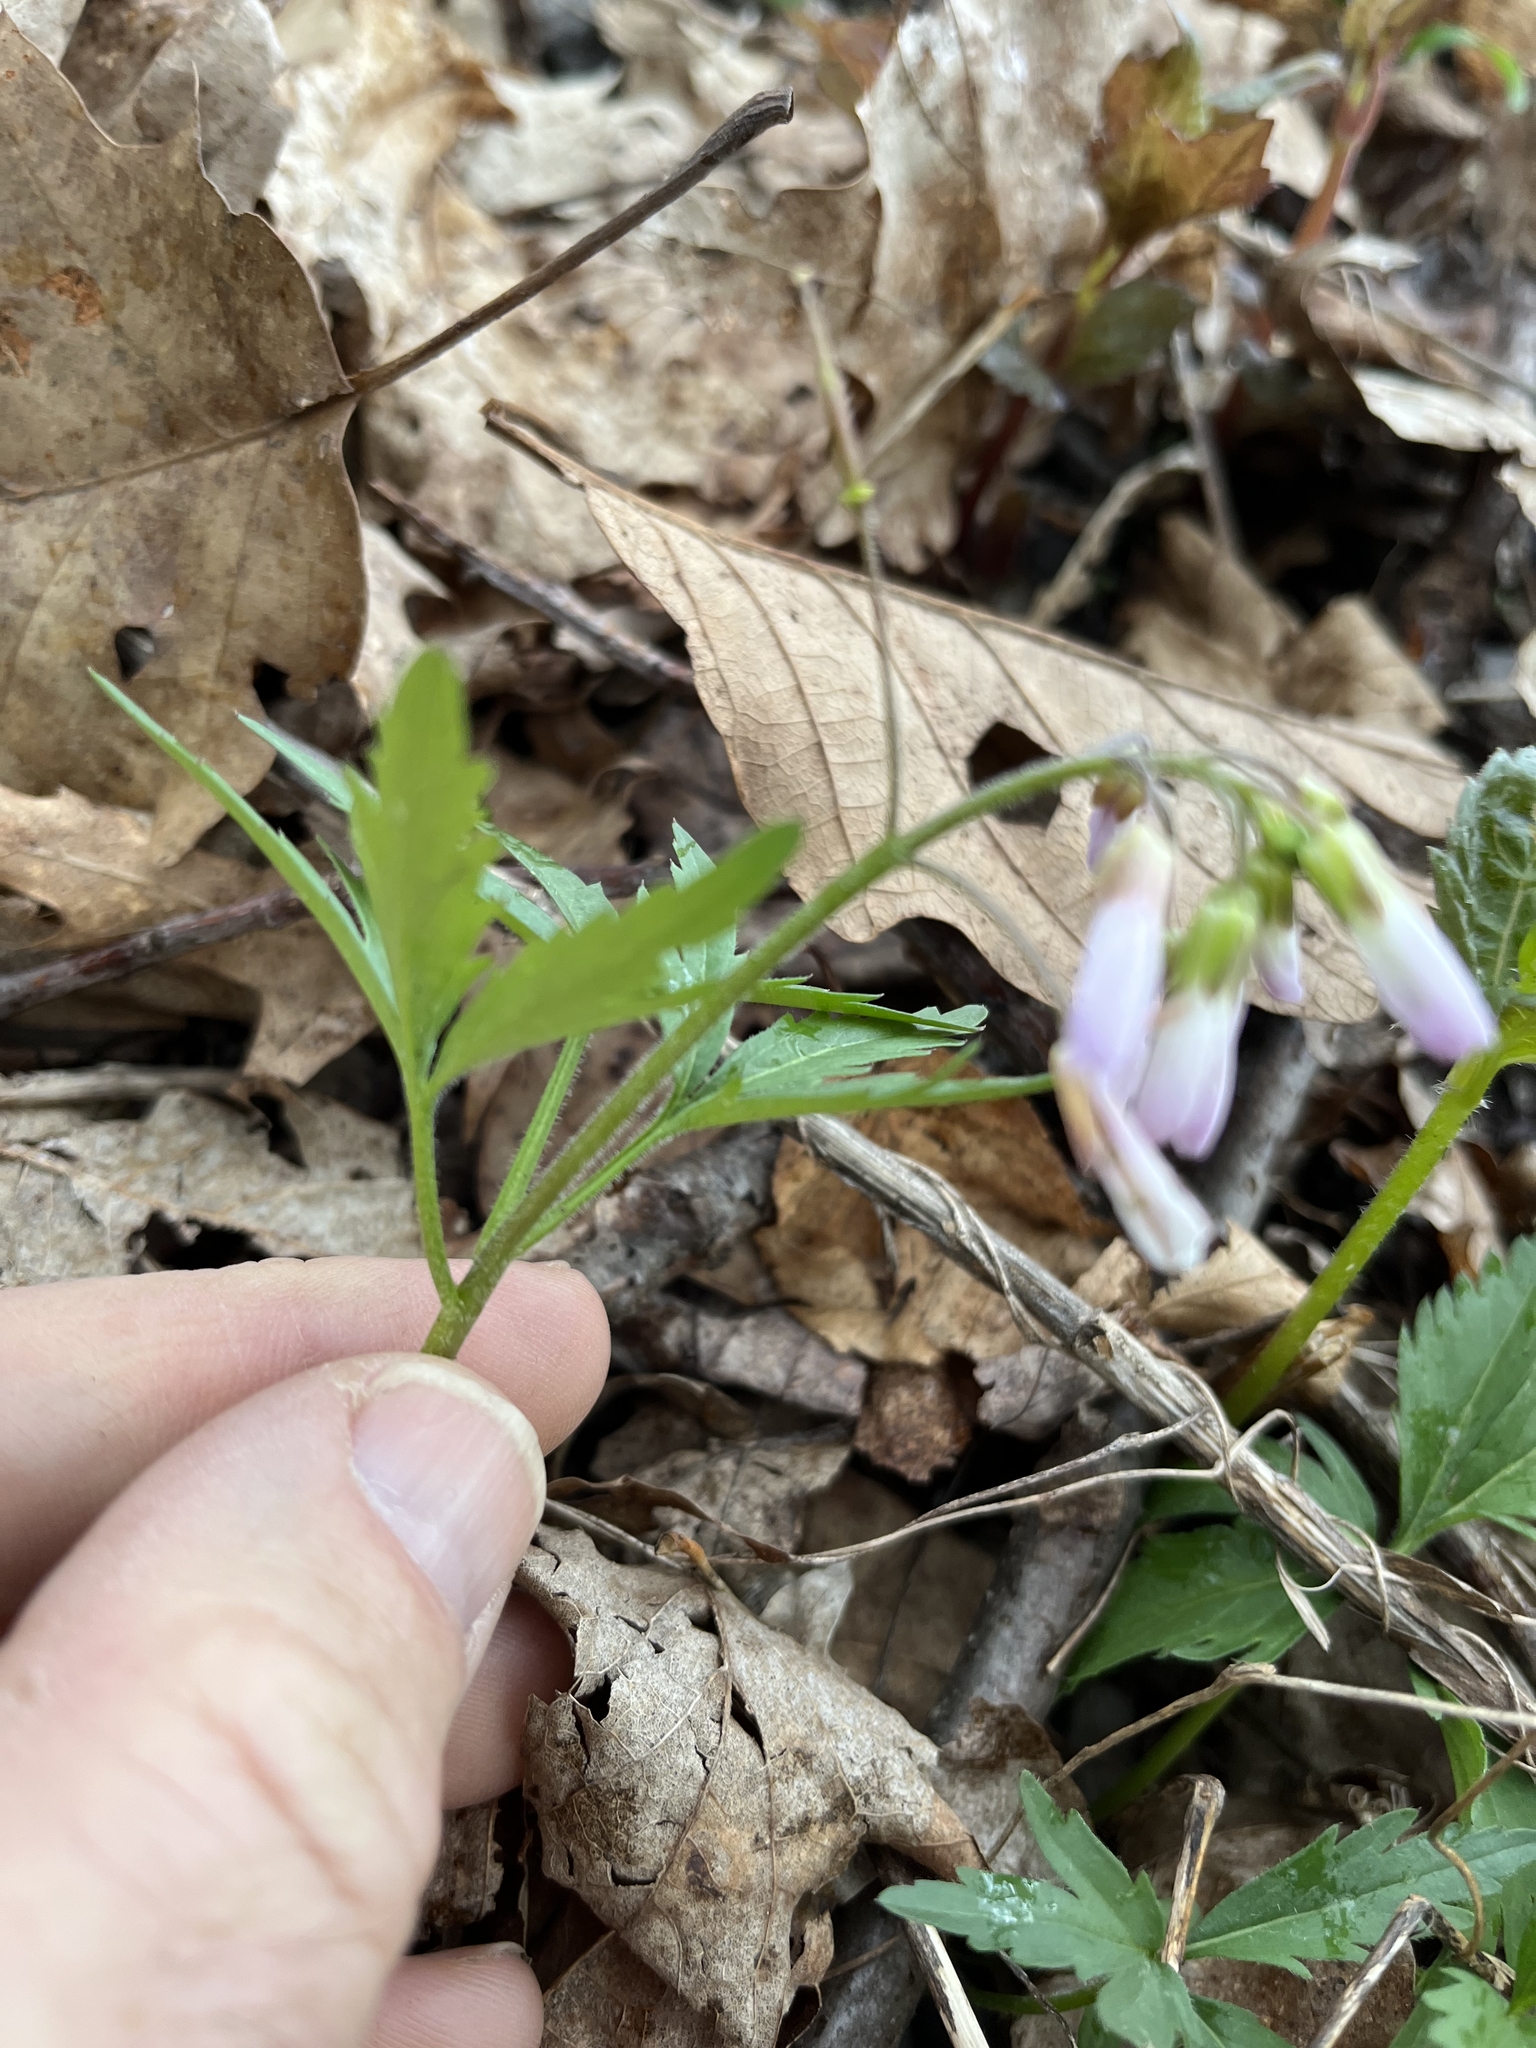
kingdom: Plantae
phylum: Tracheophyta
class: Magnoliopsida
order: Brassicales
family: Brassicaceae
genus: Cardamine
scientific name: Cardamine concatenata
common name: Cut-leaf toothcup
